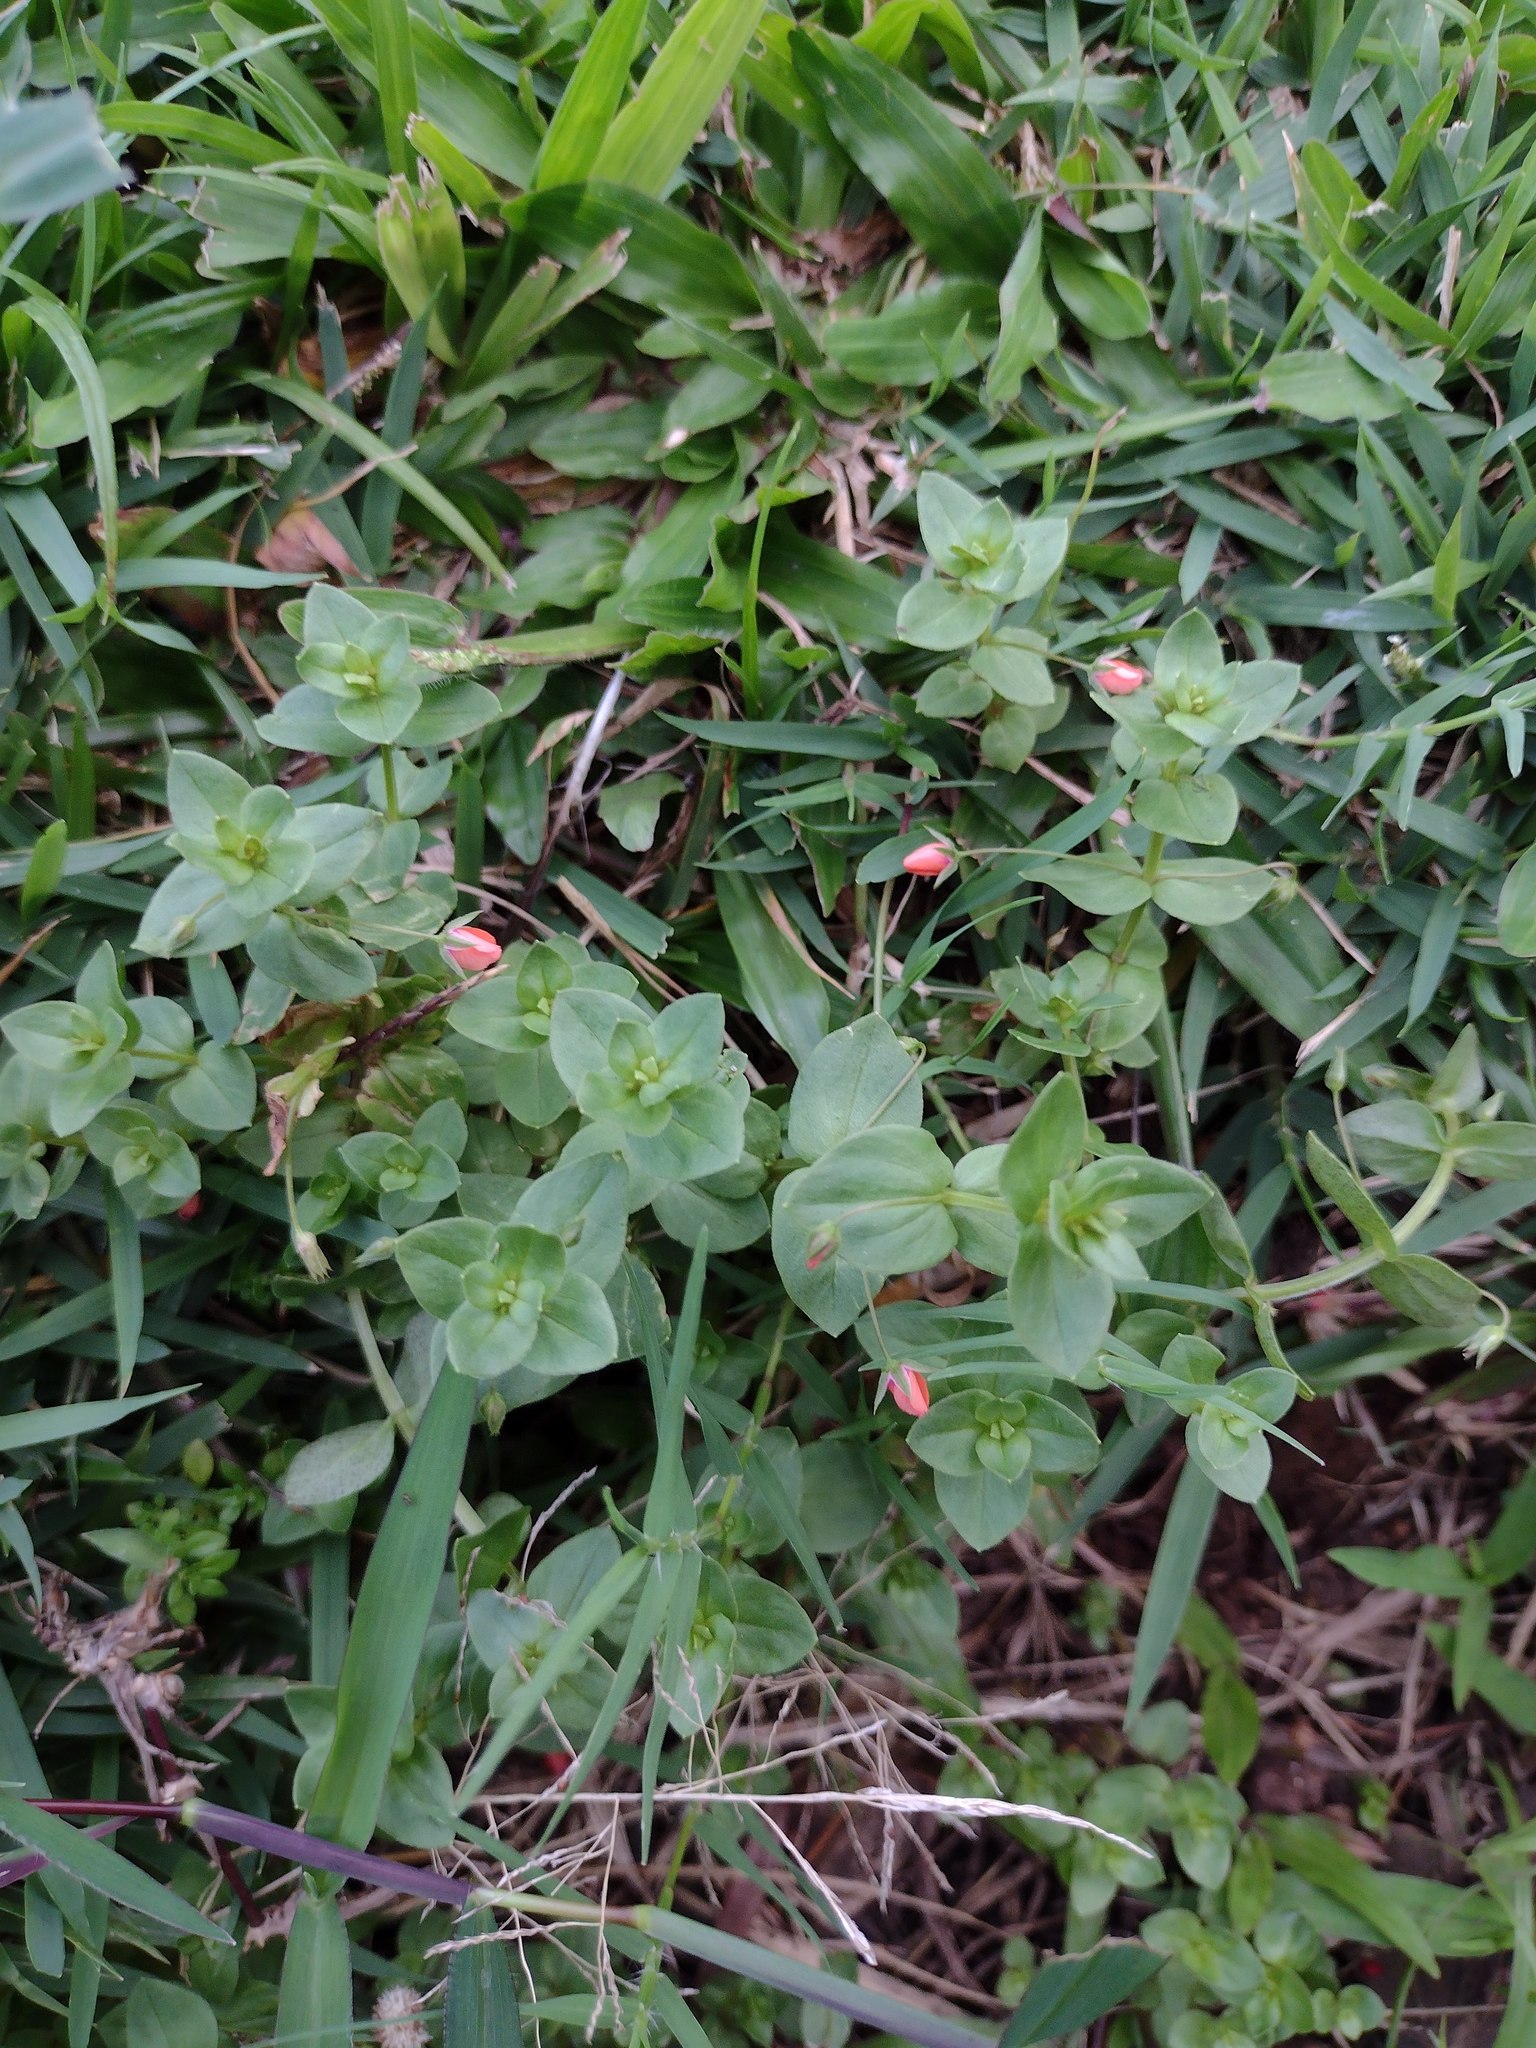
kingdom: Plantae
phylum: Tracheophyta
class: Magnoliopsida
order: Ericales
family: Primulaceae
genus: Lysimachia
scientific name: Lysimachia arvensis
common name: Scarlet pimpernel
